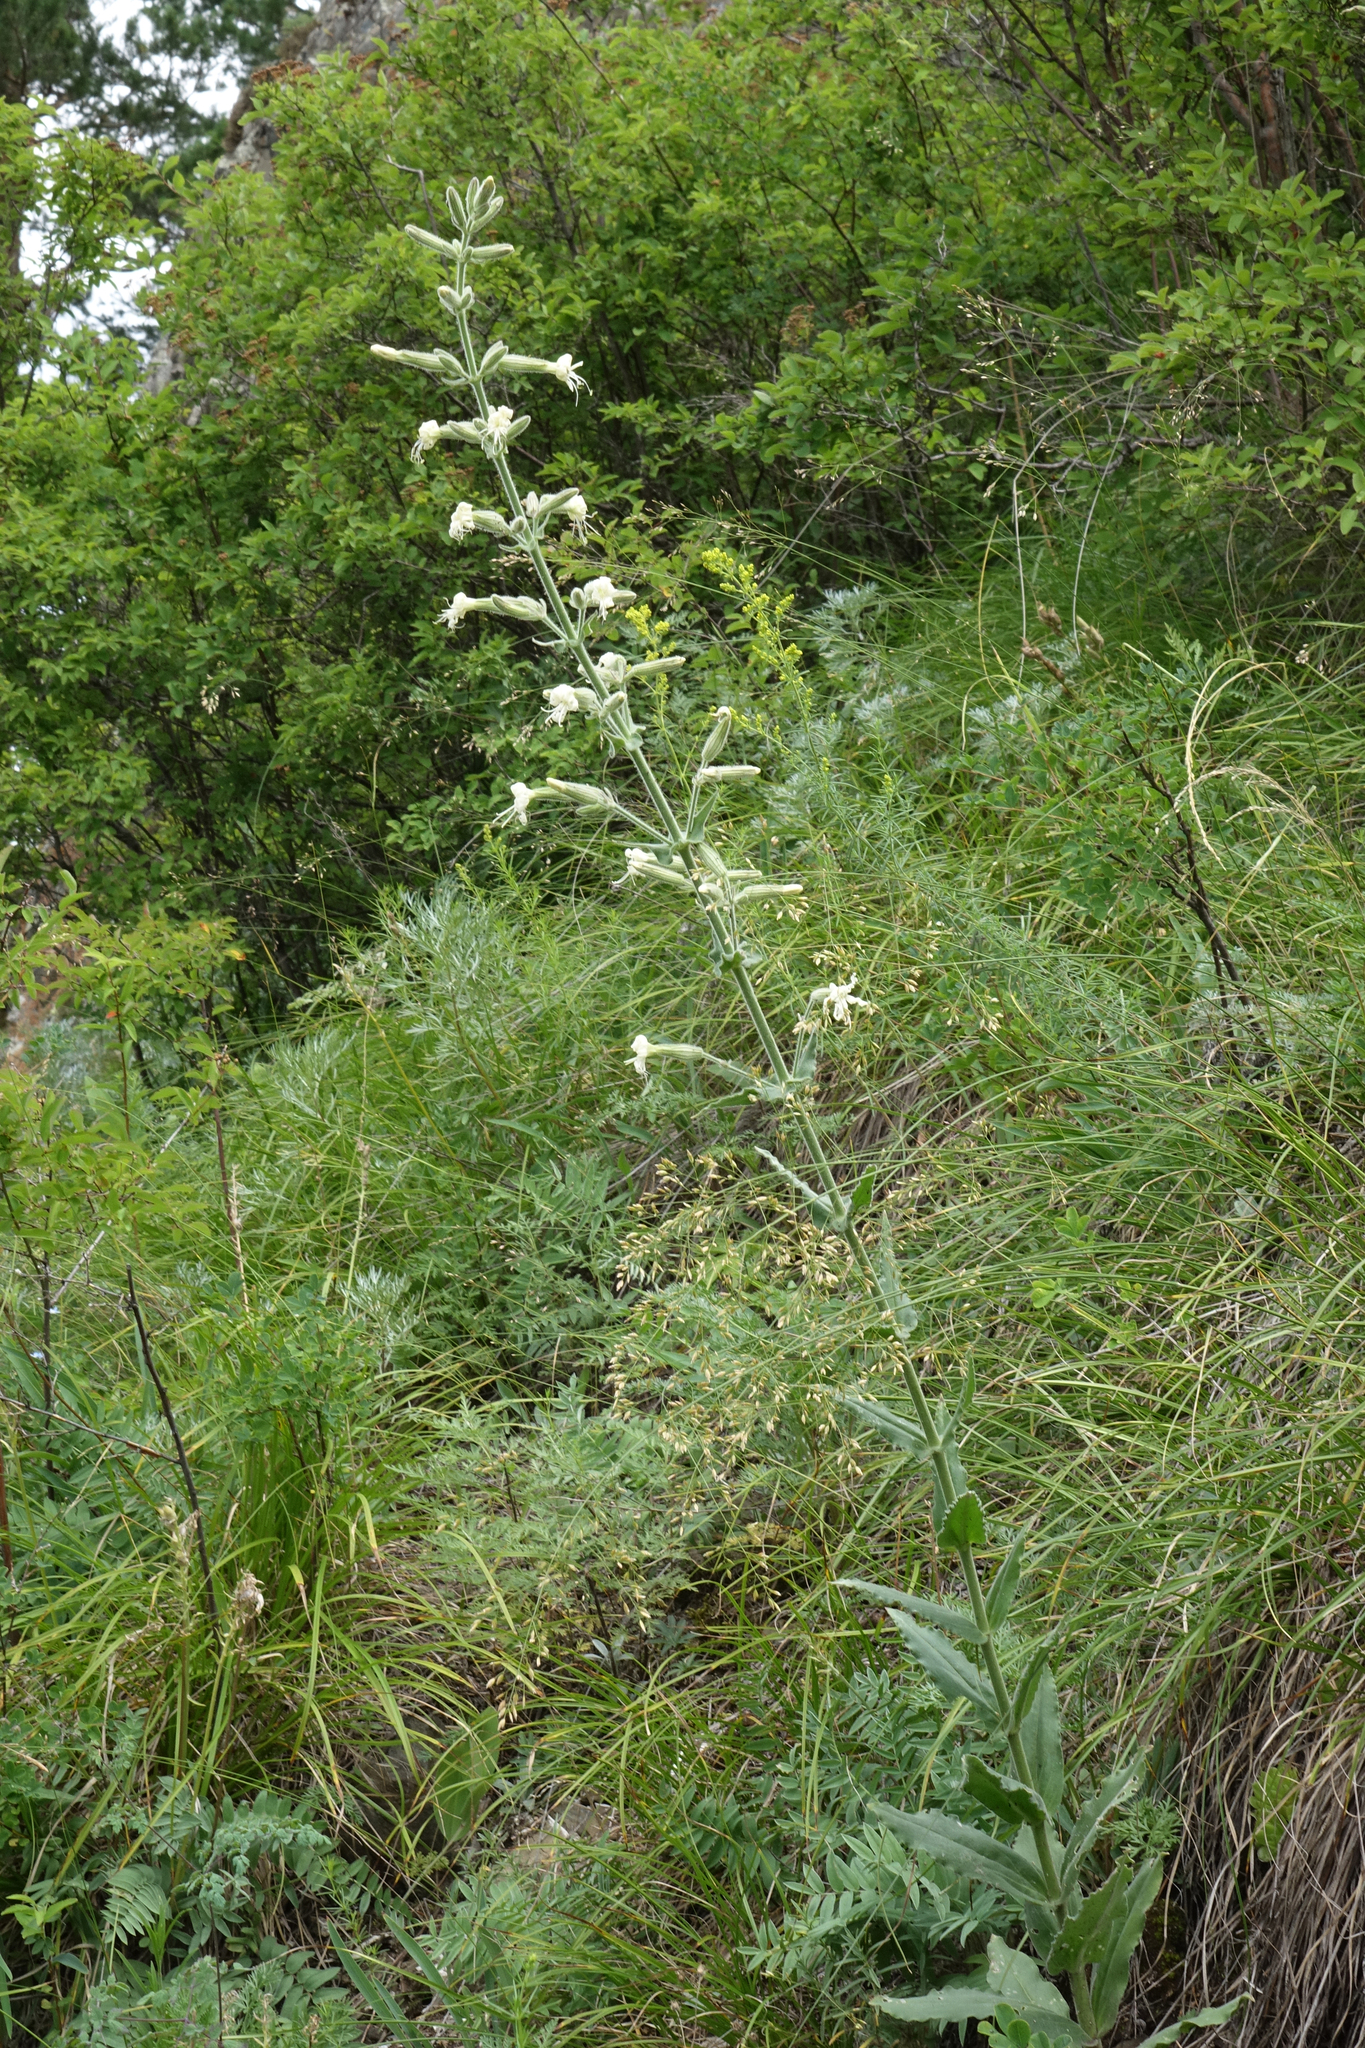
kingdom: Plantae
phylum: Tracheophyta
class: Magnoliopsida
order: Caryophyllales
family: Caryophyllaceae
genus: Silene
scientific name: Silene viscosa
